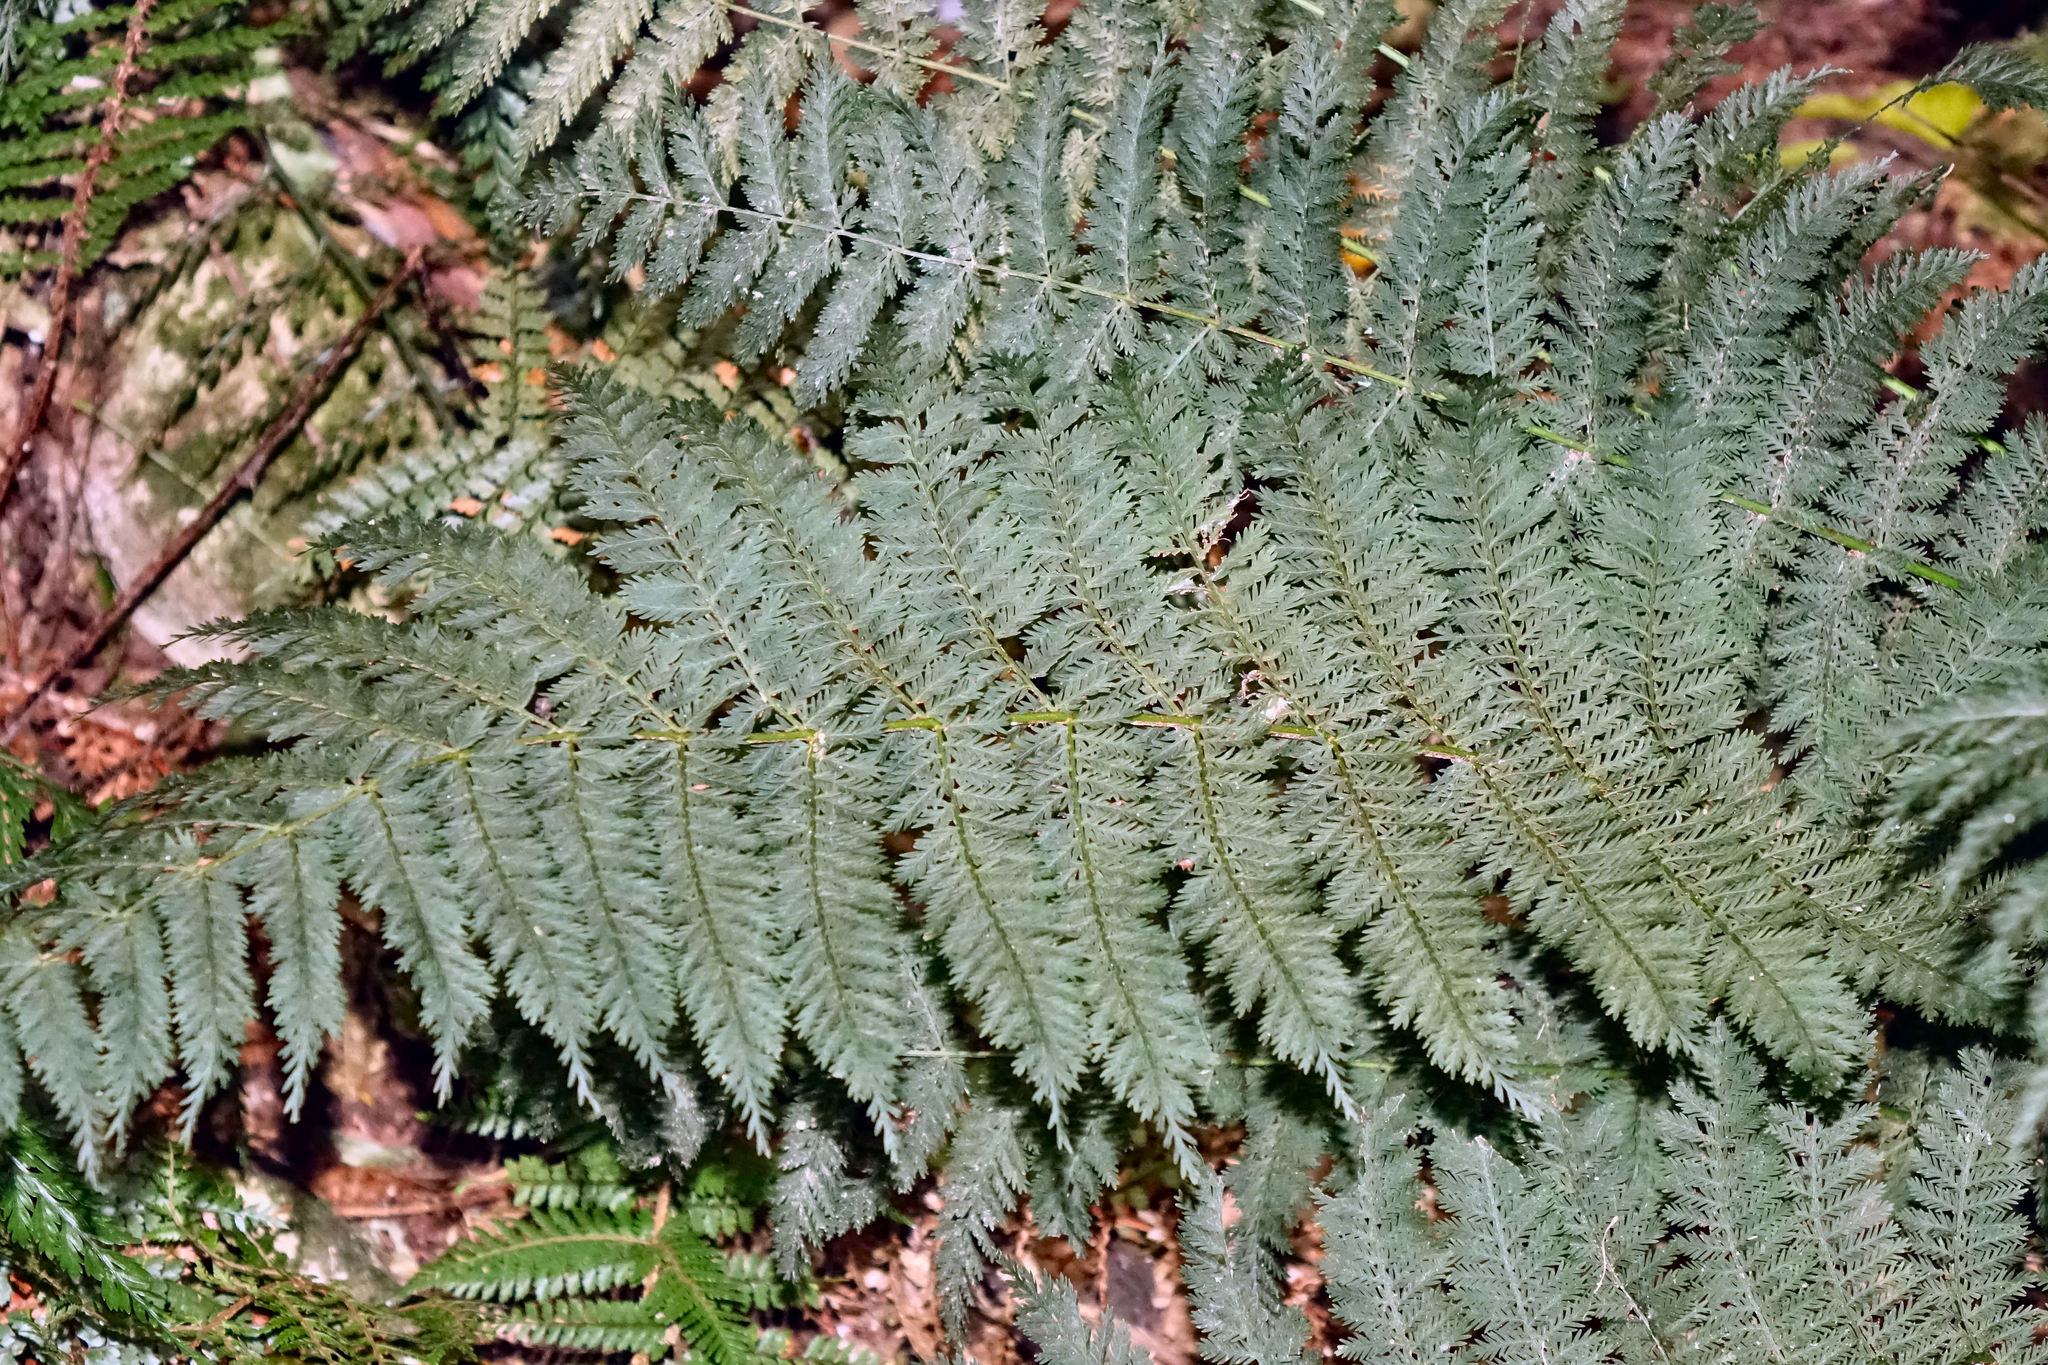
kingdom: Plantae
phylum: Tracheophyta
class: Polypodiopsida
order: Osmundales
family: Osmundaceae
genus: Leptopteris
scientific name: Leptopteris hymenophylloides
